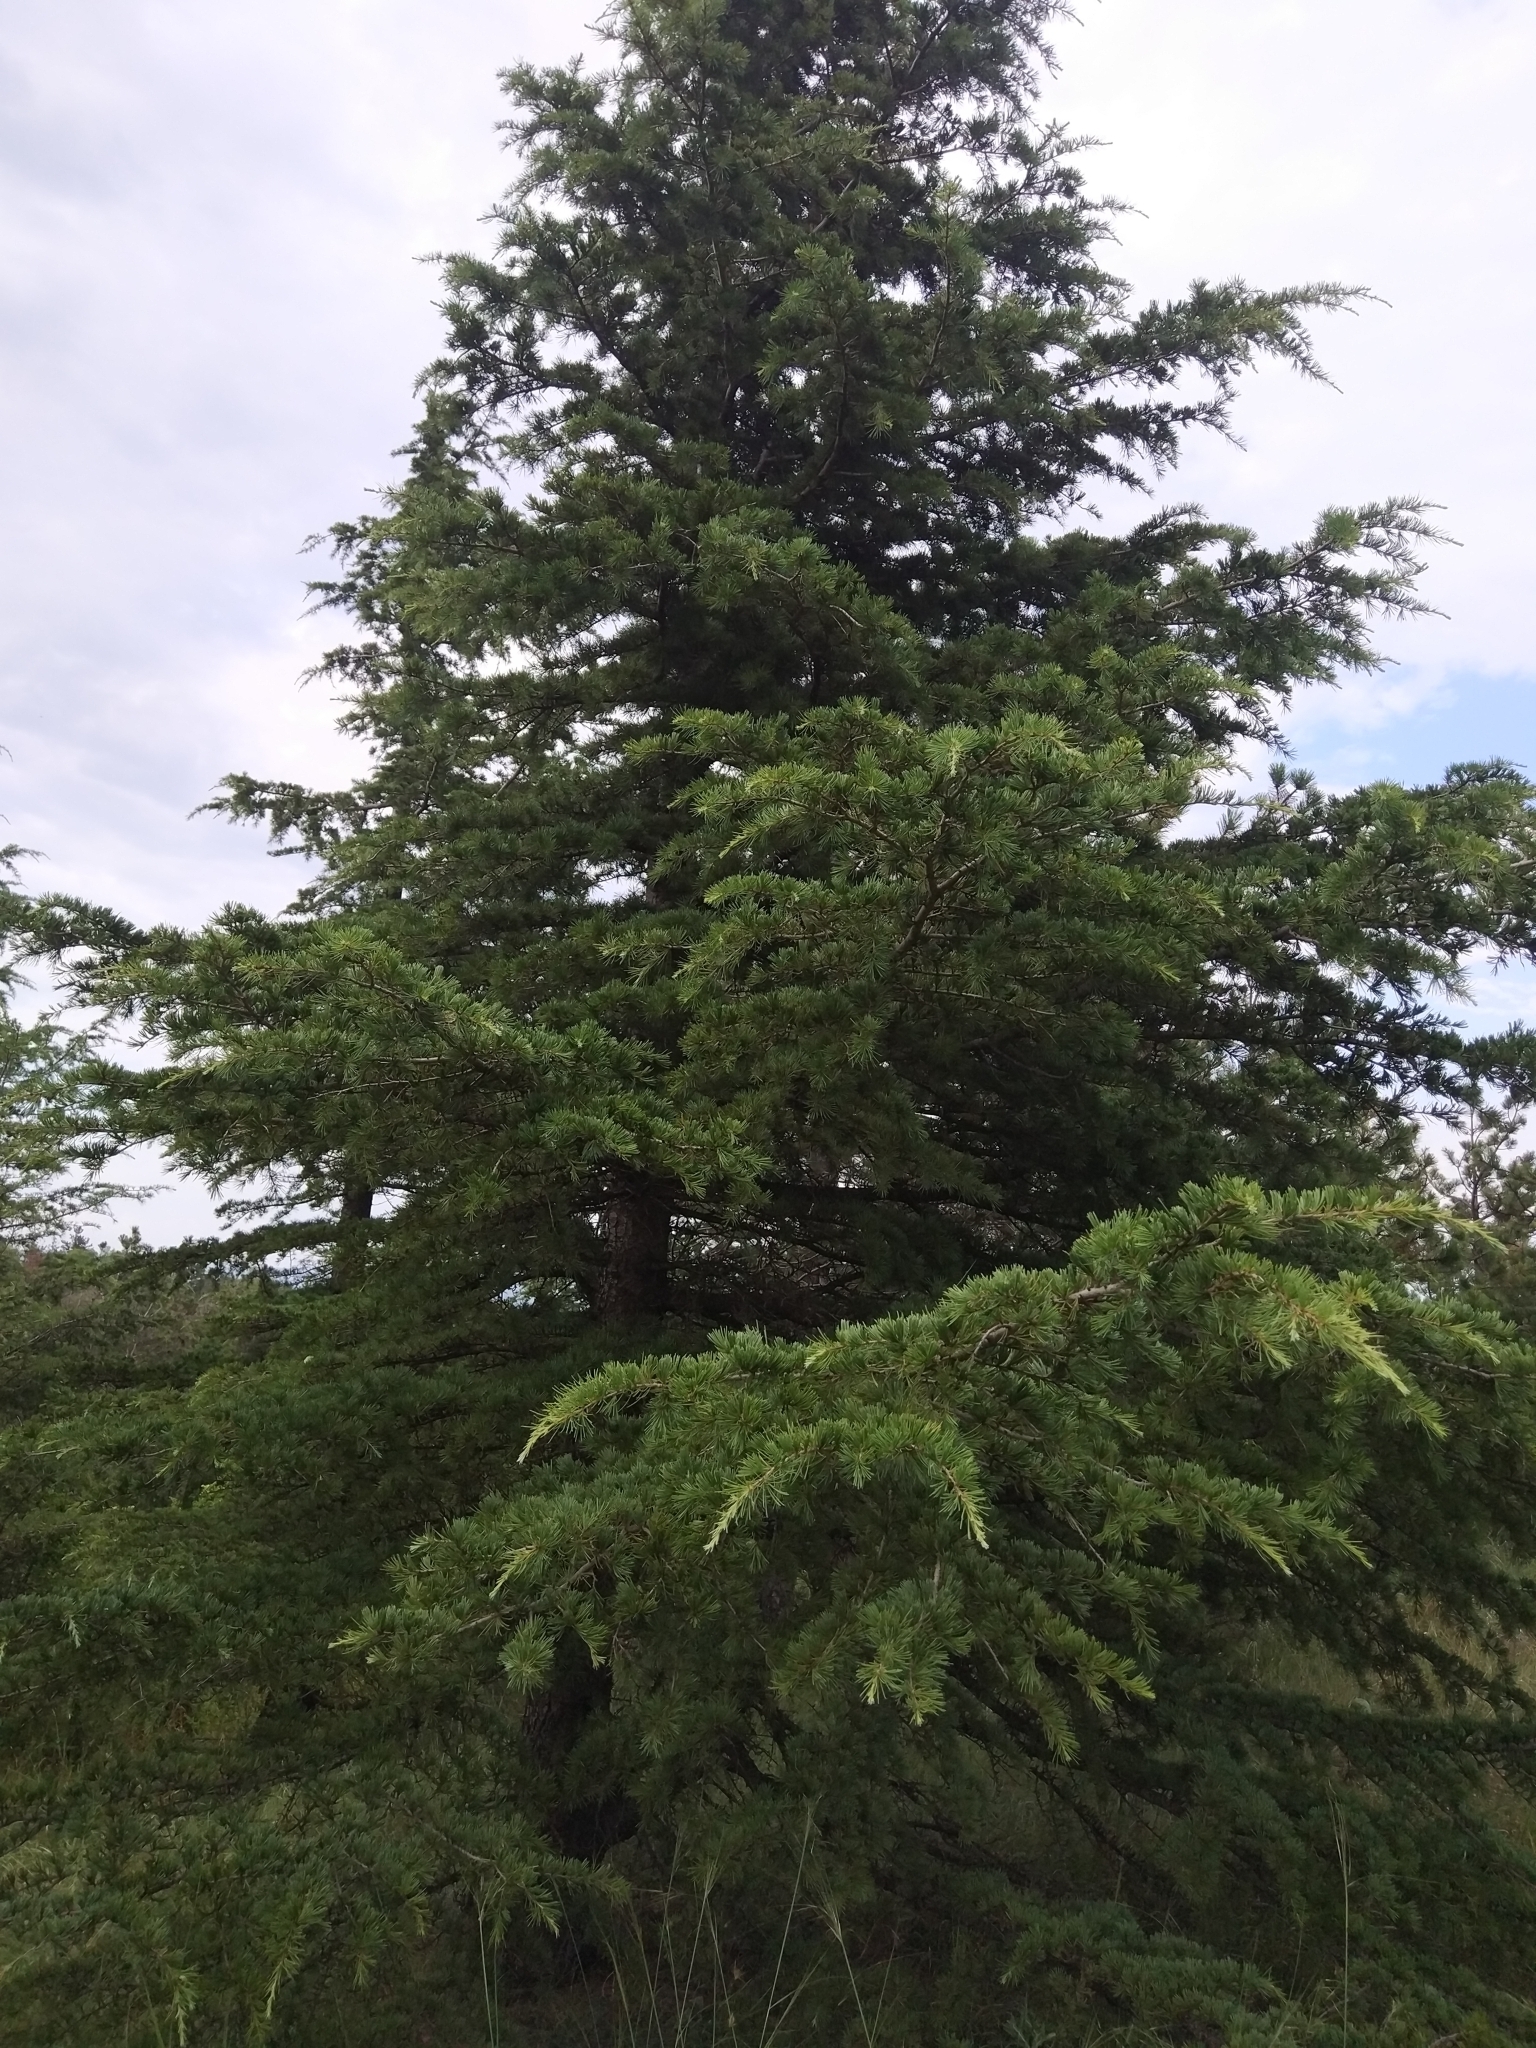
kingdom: Plantae
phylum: Tracheophyta
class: Pinopsida
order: Pinales
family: Pinaceae
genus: Cedrus
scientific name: Cedrus deodara
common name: Deodar
